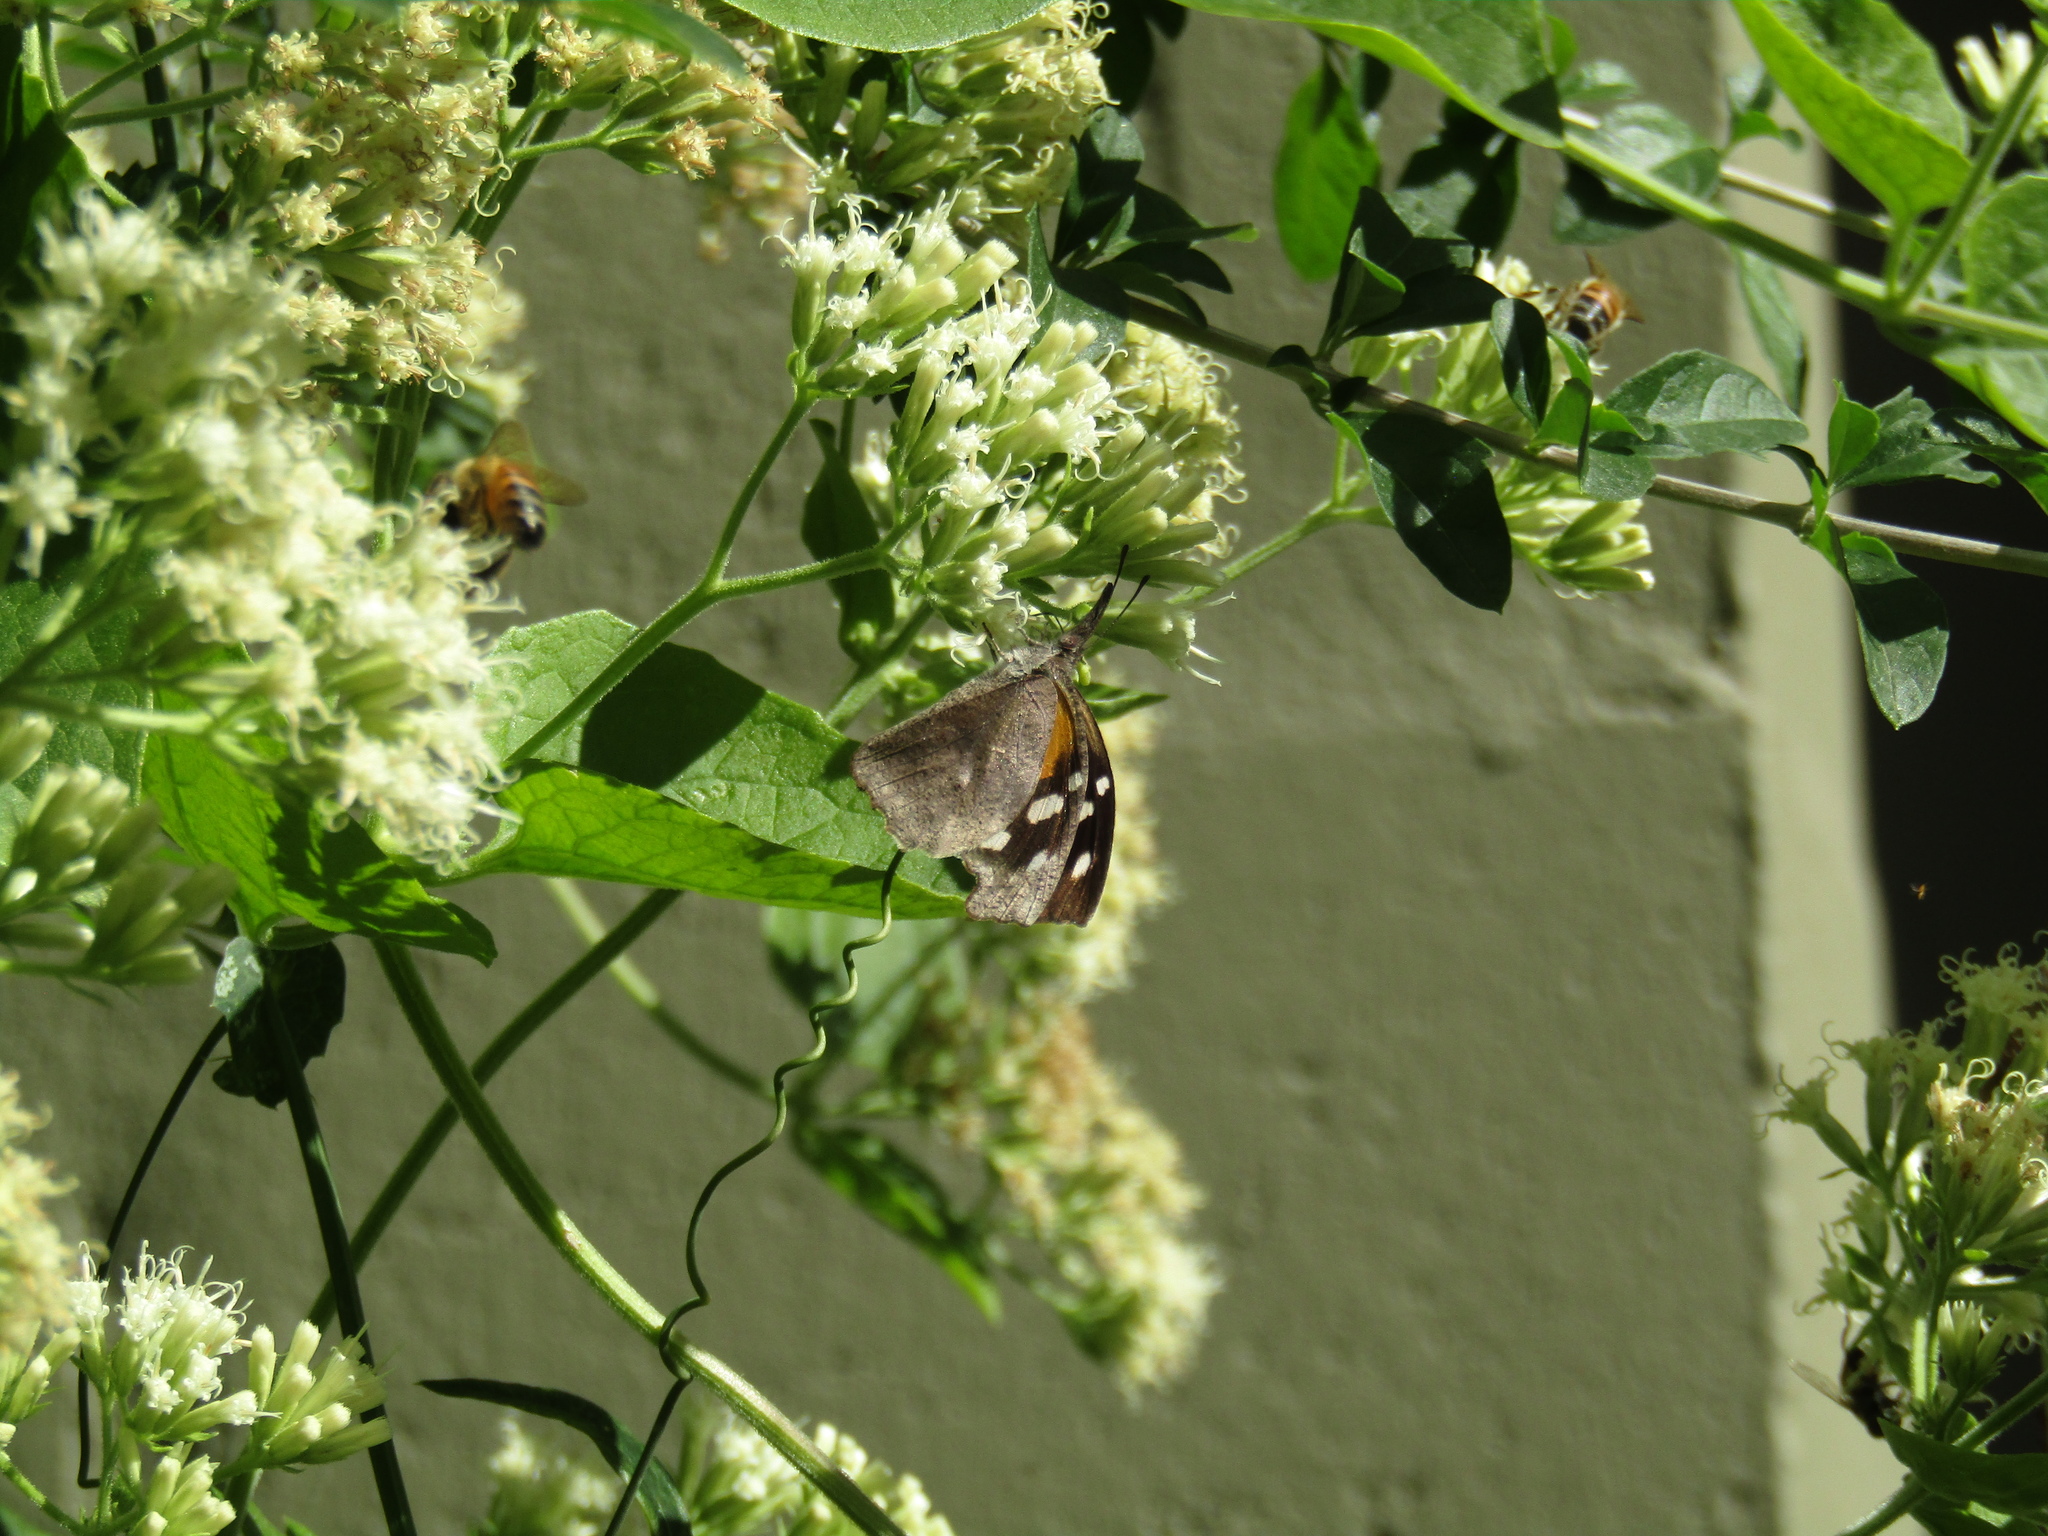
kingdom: Animalia
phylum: Arthropoda
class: Insecta
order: Lepidoptera
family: Nymphalidae
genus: Libytheana
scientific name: Libytheana carinenta
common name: American snout
